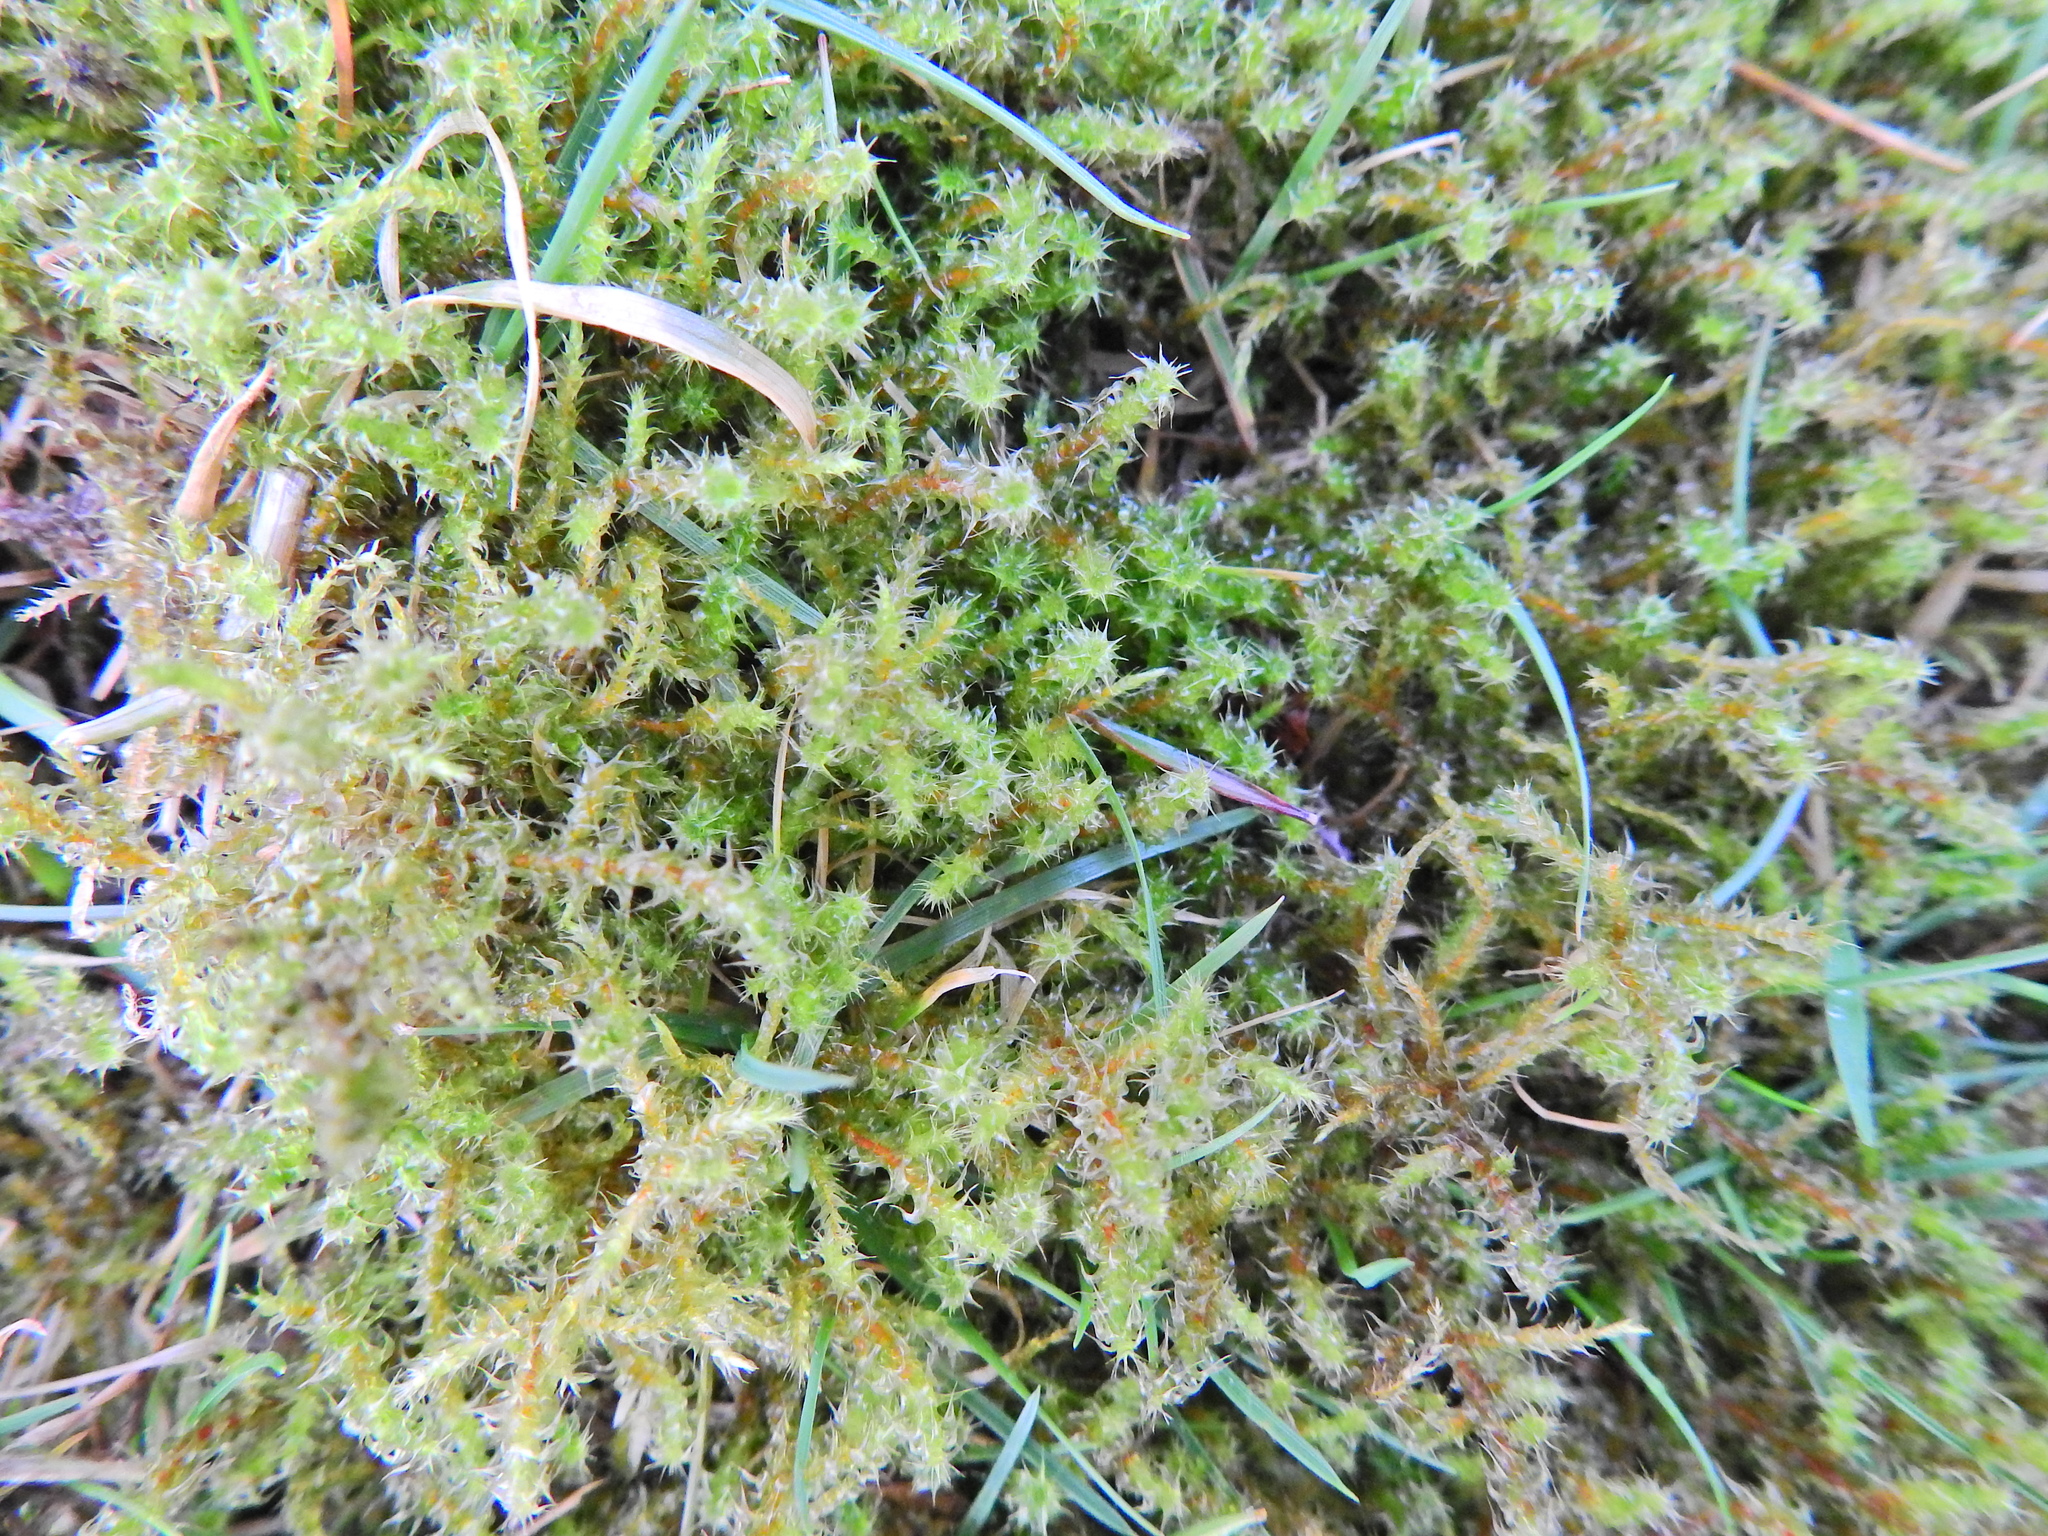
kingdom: Plantae
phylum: Bryophyta
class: Bryopsida
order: Hypnales
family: Hylocomiaceae
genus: Rhytidiadelphus
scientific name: Rhytidiadelphus squarrosus
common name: Springy turf-moss
